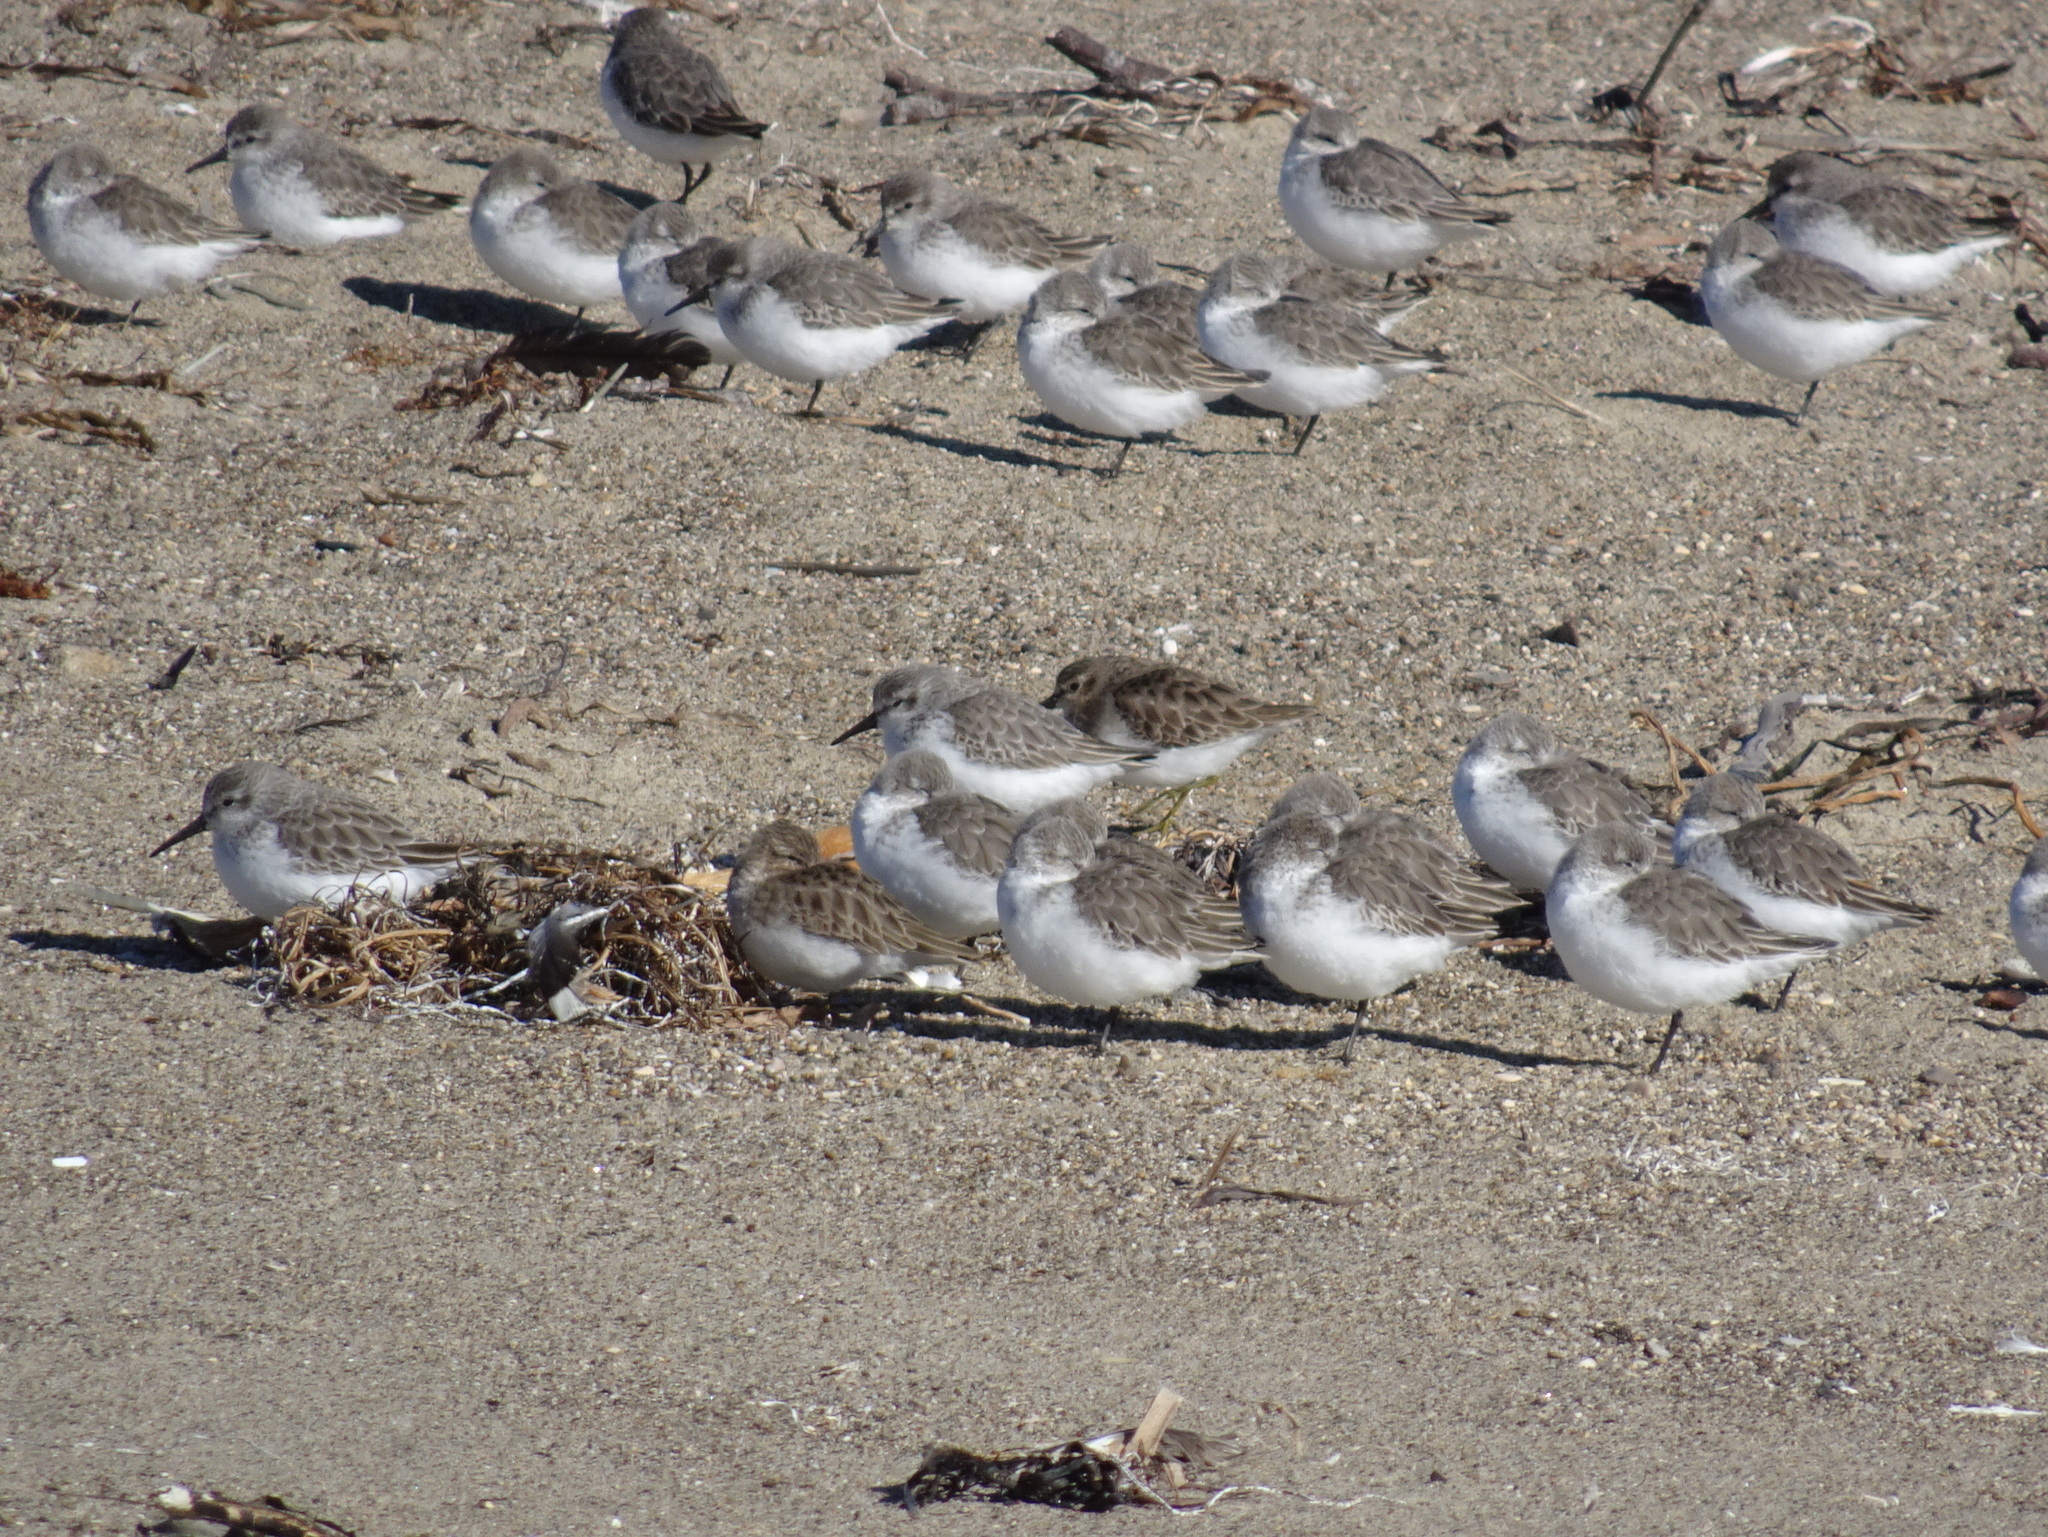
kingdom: Animalia
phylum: Chordata
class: Aves
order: Charadriiformes
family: Scolopacidae
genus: Calidris
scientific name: Calidris mauri
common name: Western sandpiper
